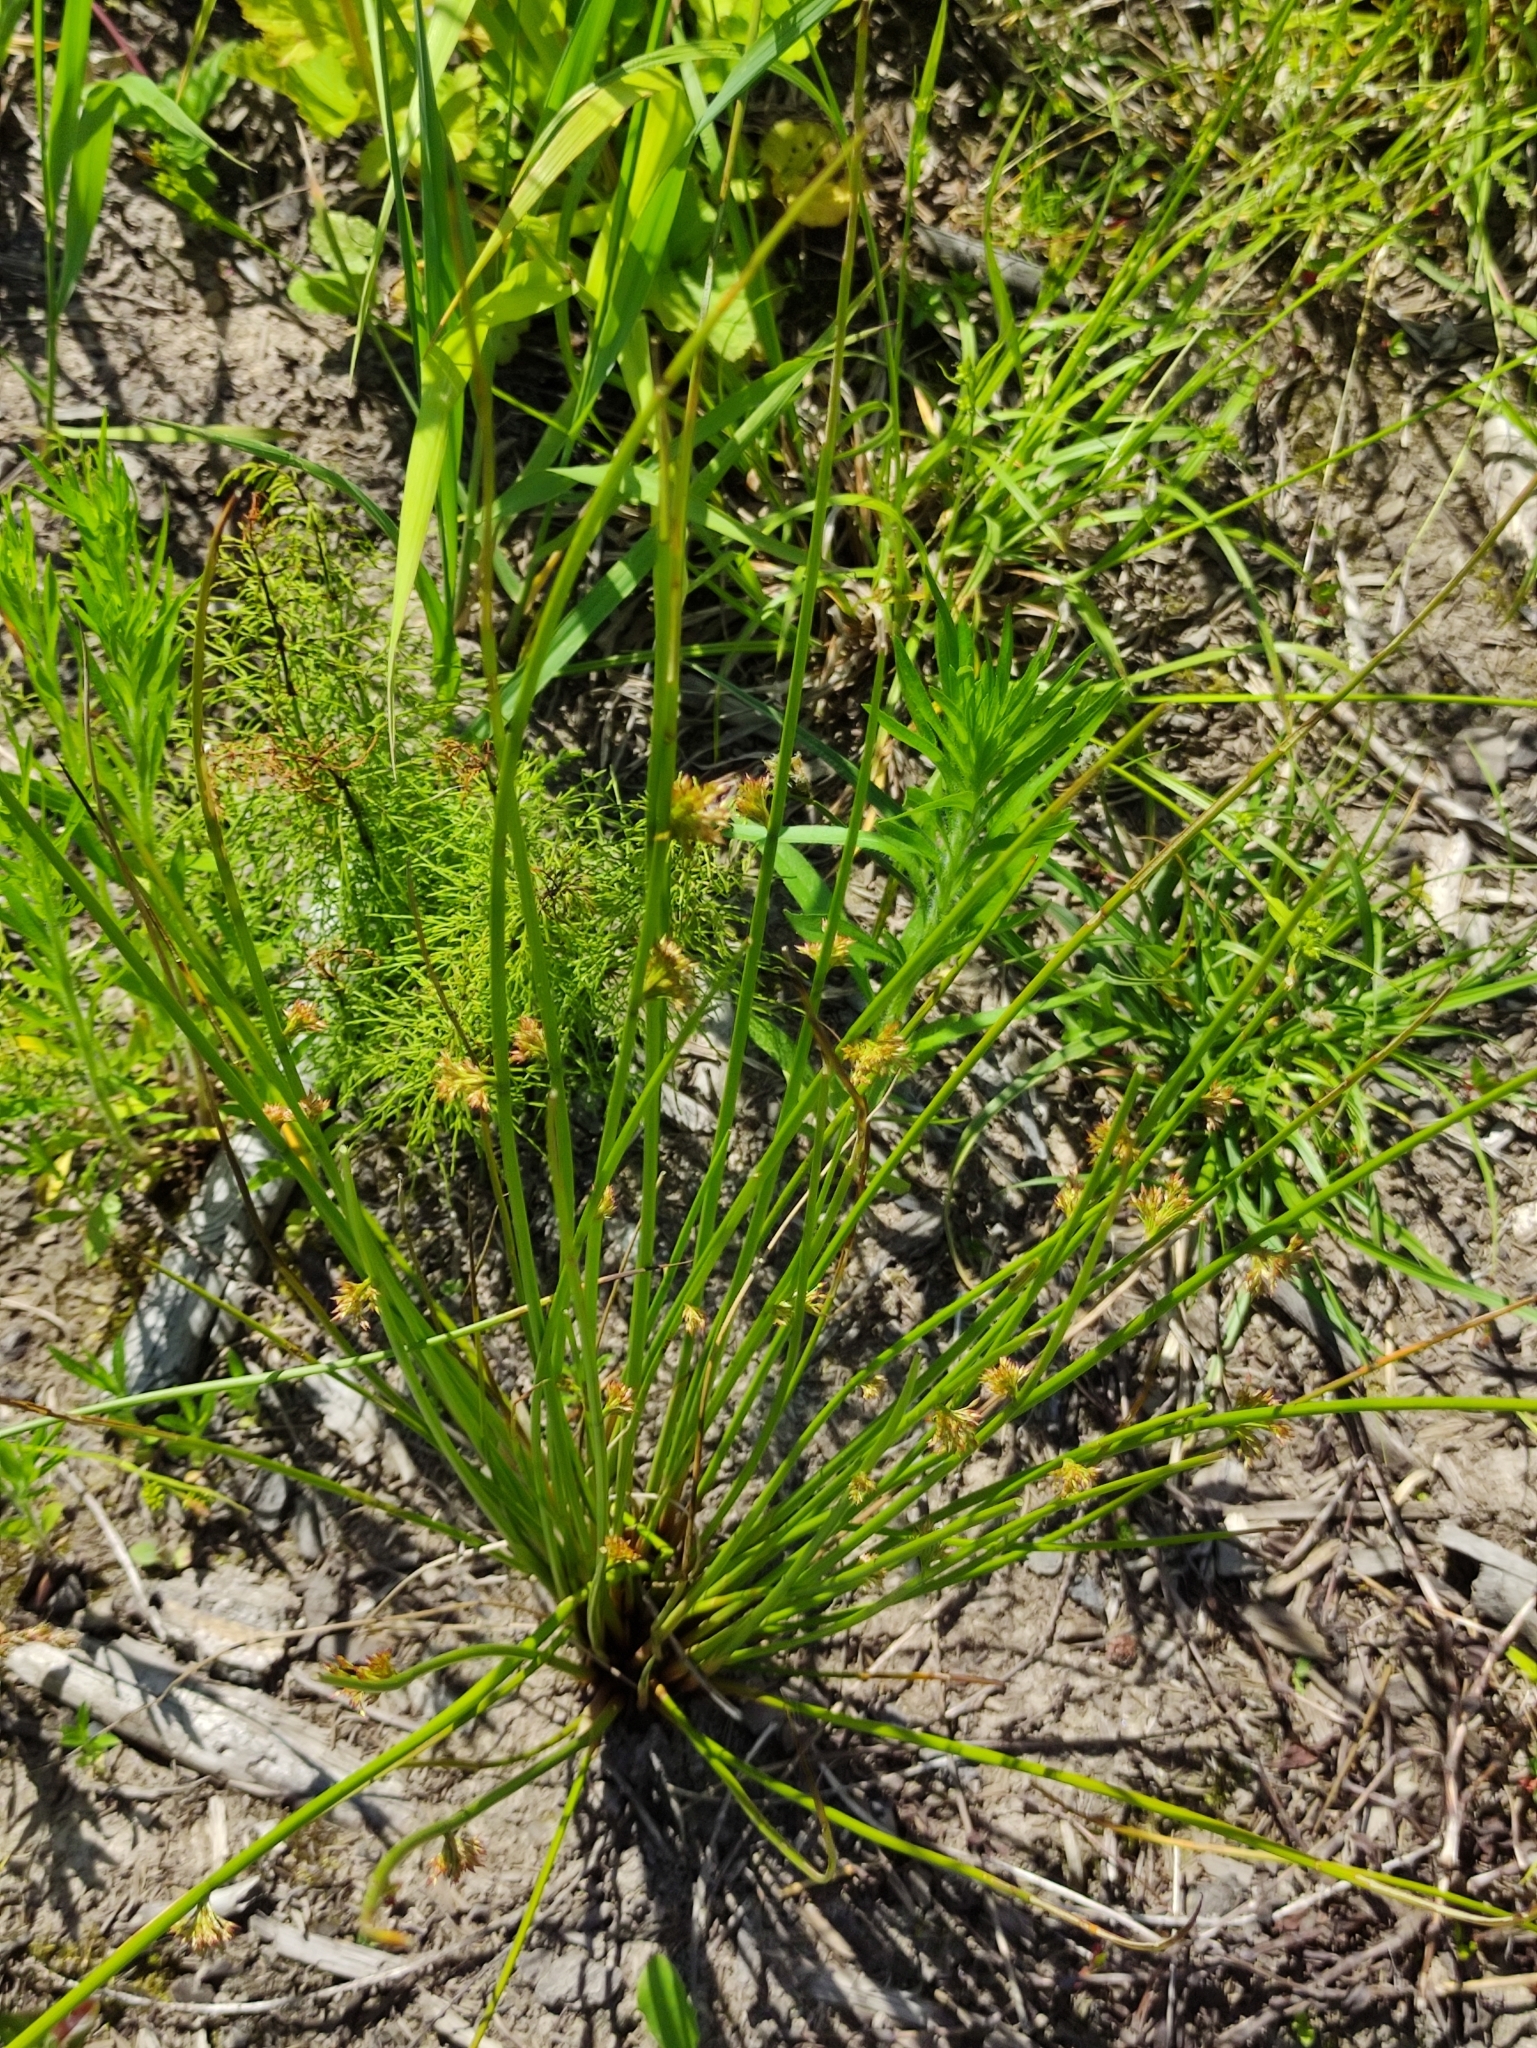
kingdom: Plantae
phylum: Tracheophyta
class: Liliopsida
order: Poales
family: Juncaceae
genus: Juncus
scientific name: Juncus effusus
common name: Soft rush
